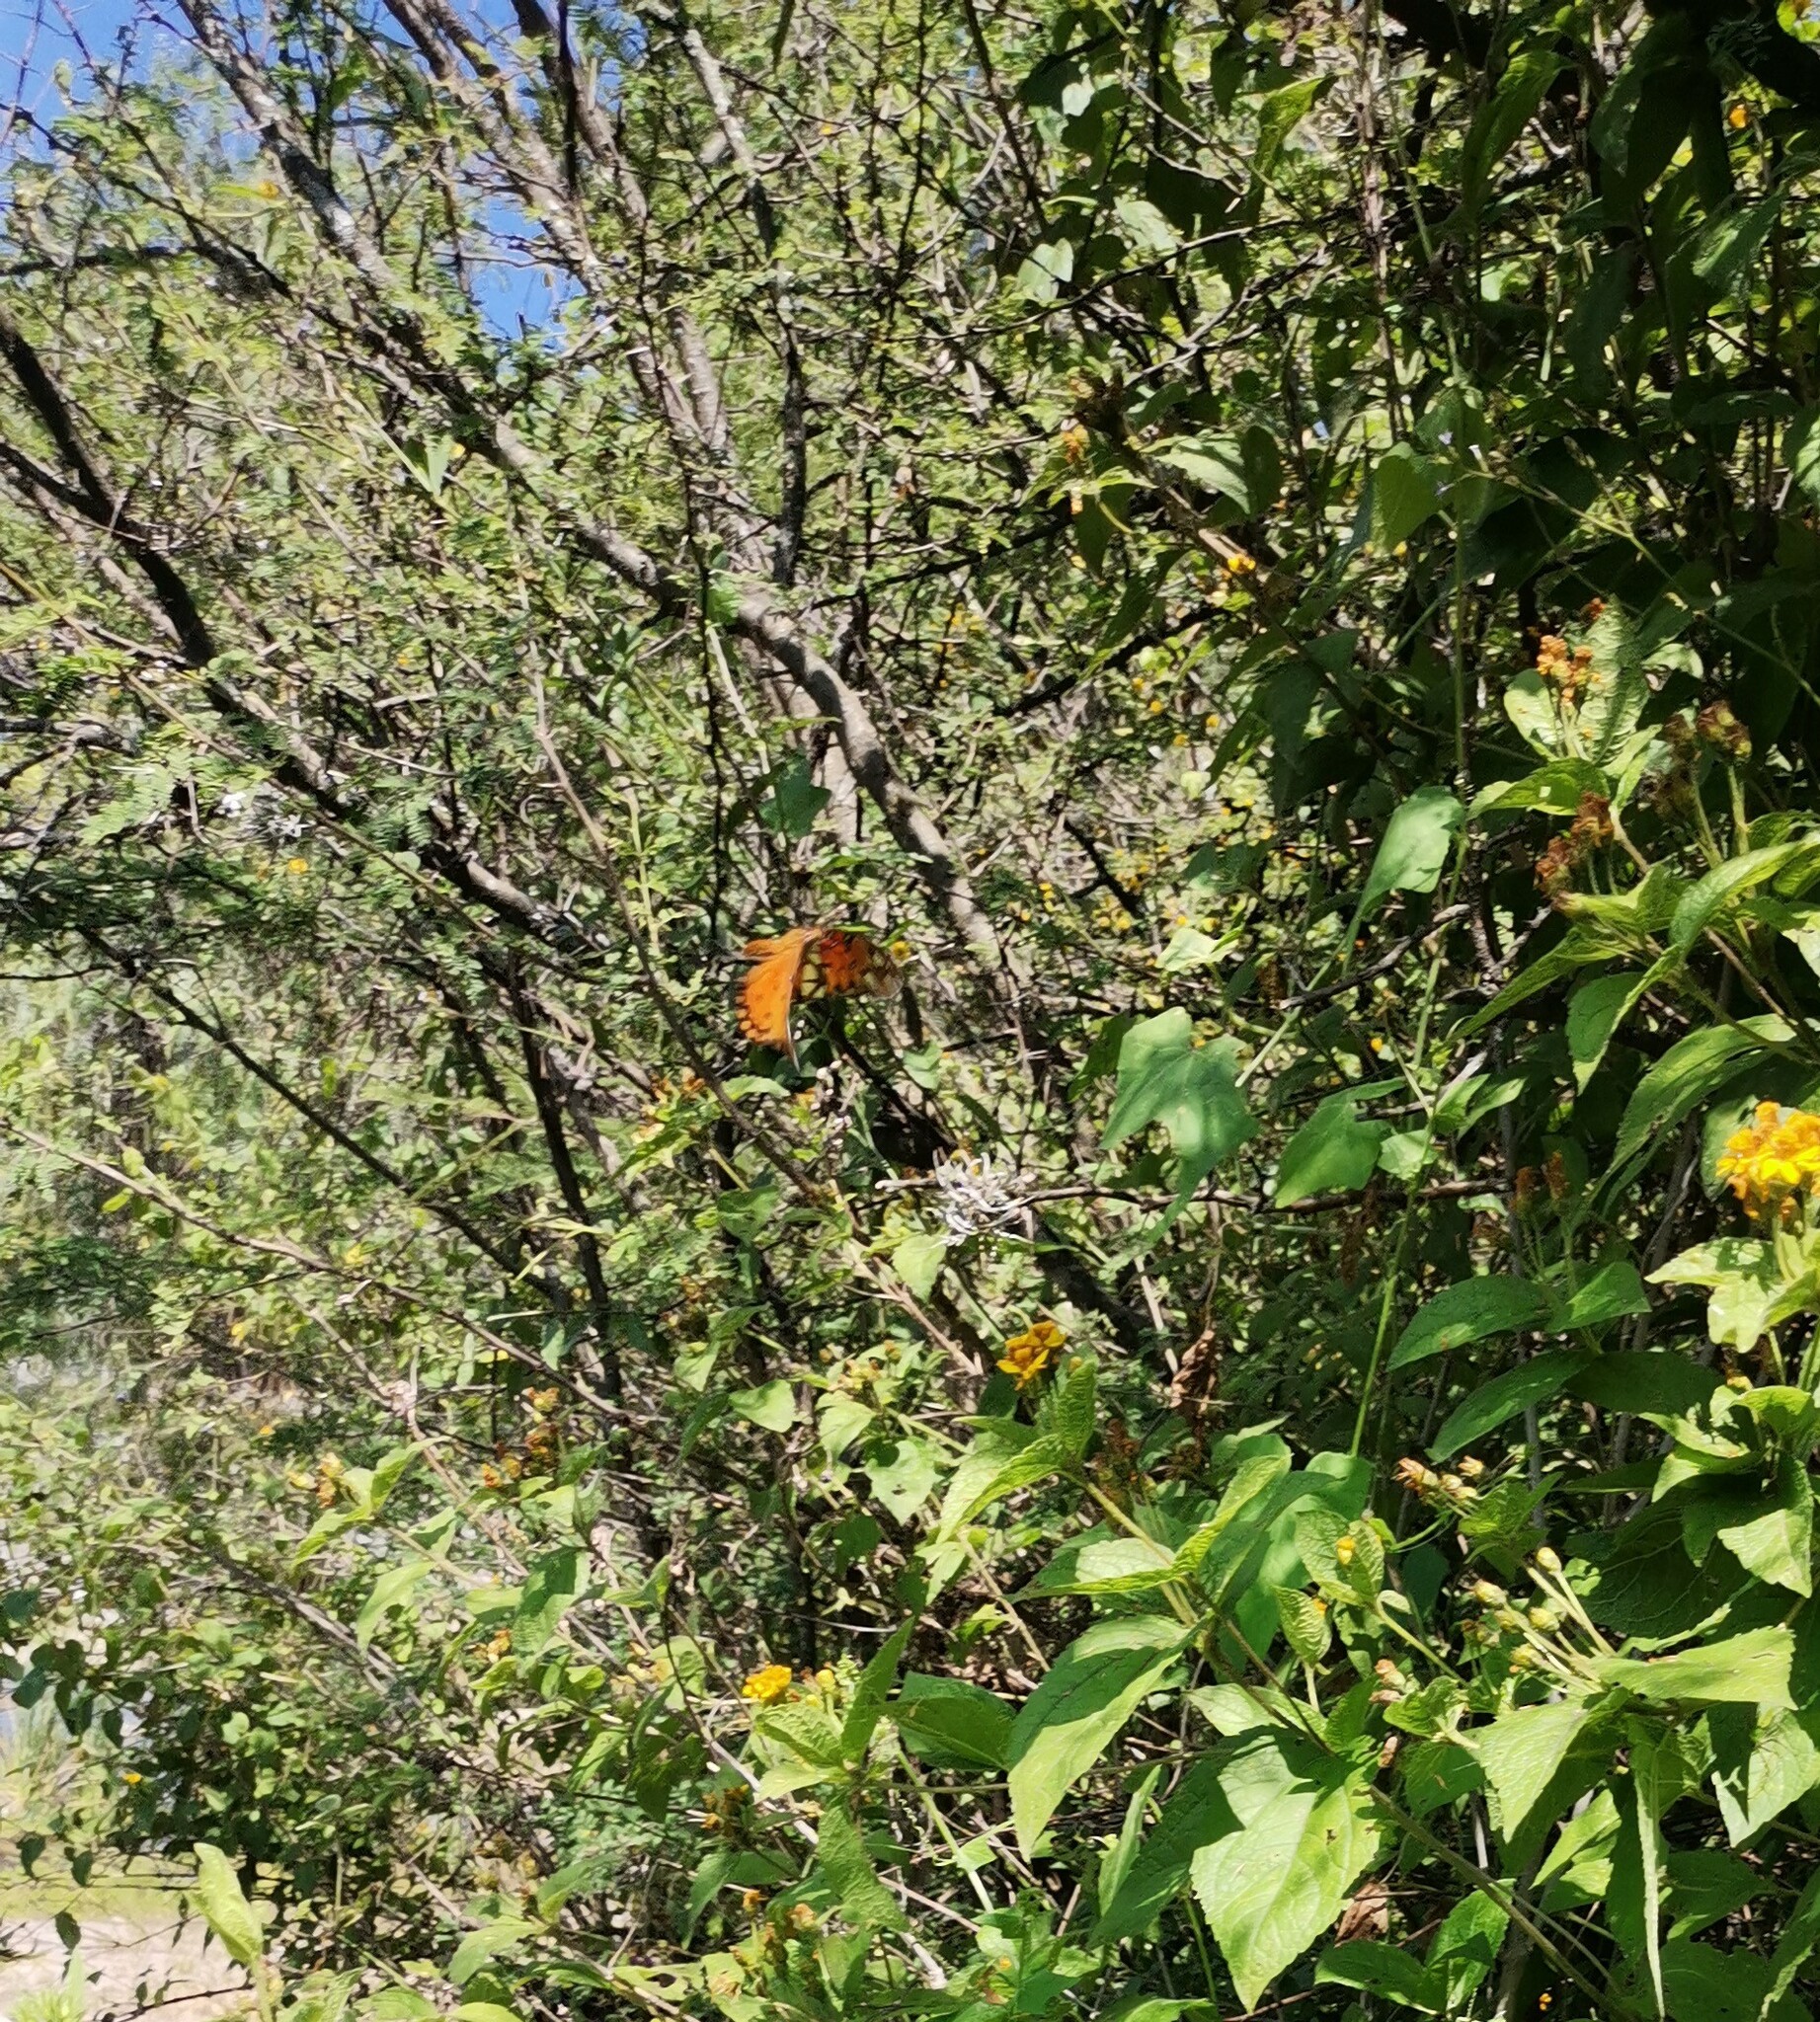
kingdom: Animalia
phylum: Arthropoda
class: Insecta
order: Lepidoptera
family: Nymphalidae
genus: Dione
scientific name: Dione vanillae
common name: Gulf fritillary
